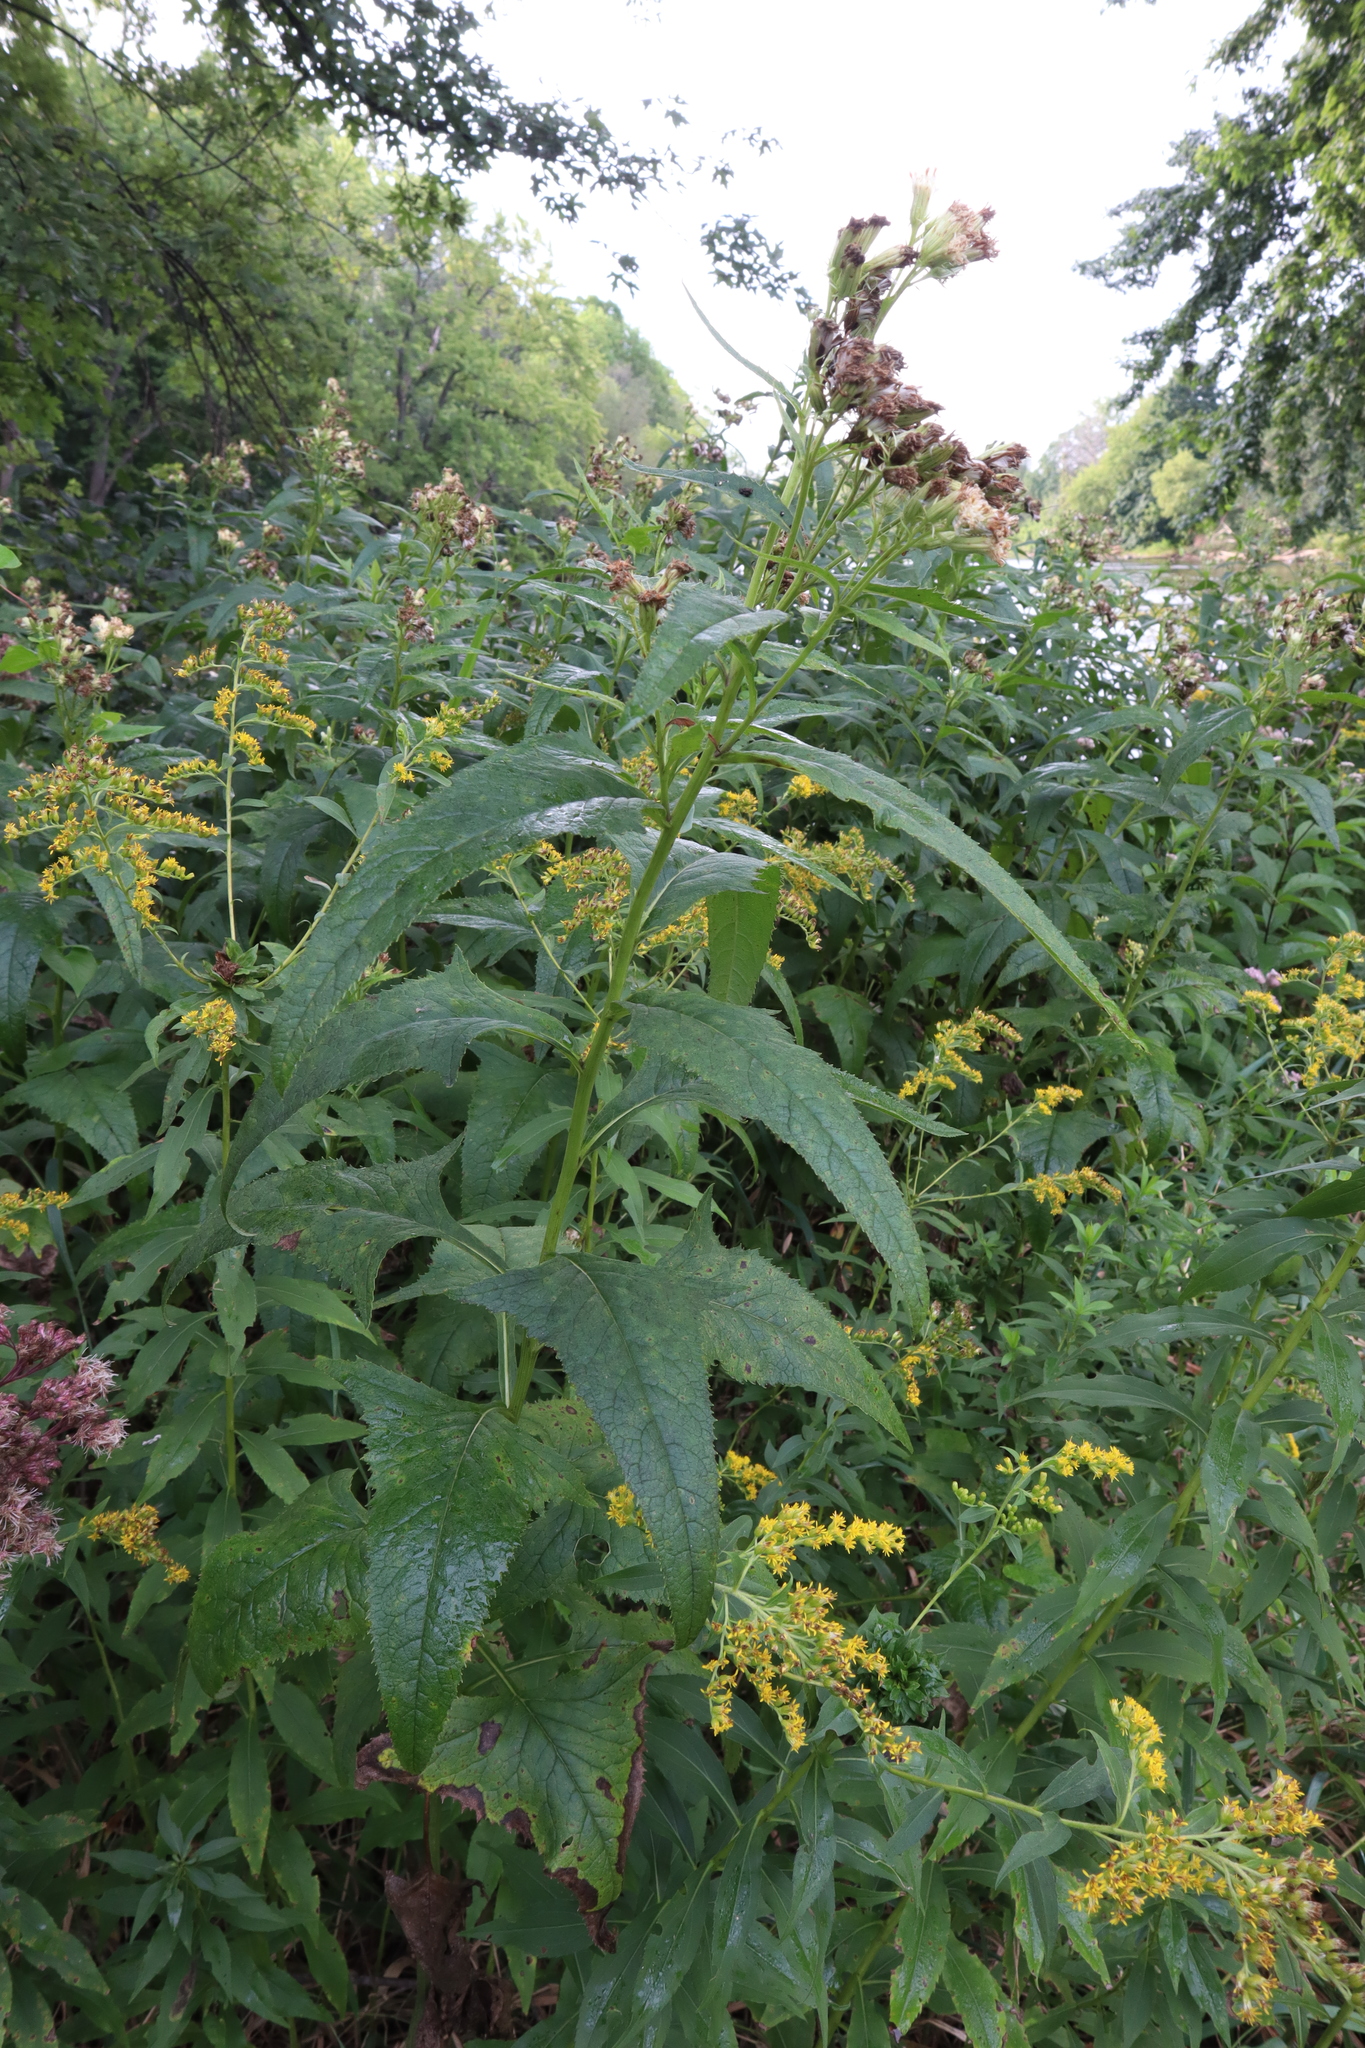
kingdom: Plantae
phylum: Tracheophyta
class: Magnoliopsida
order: Asterales
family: Asteraceae
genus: Hasteola
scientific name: Hasteola suaveolens
